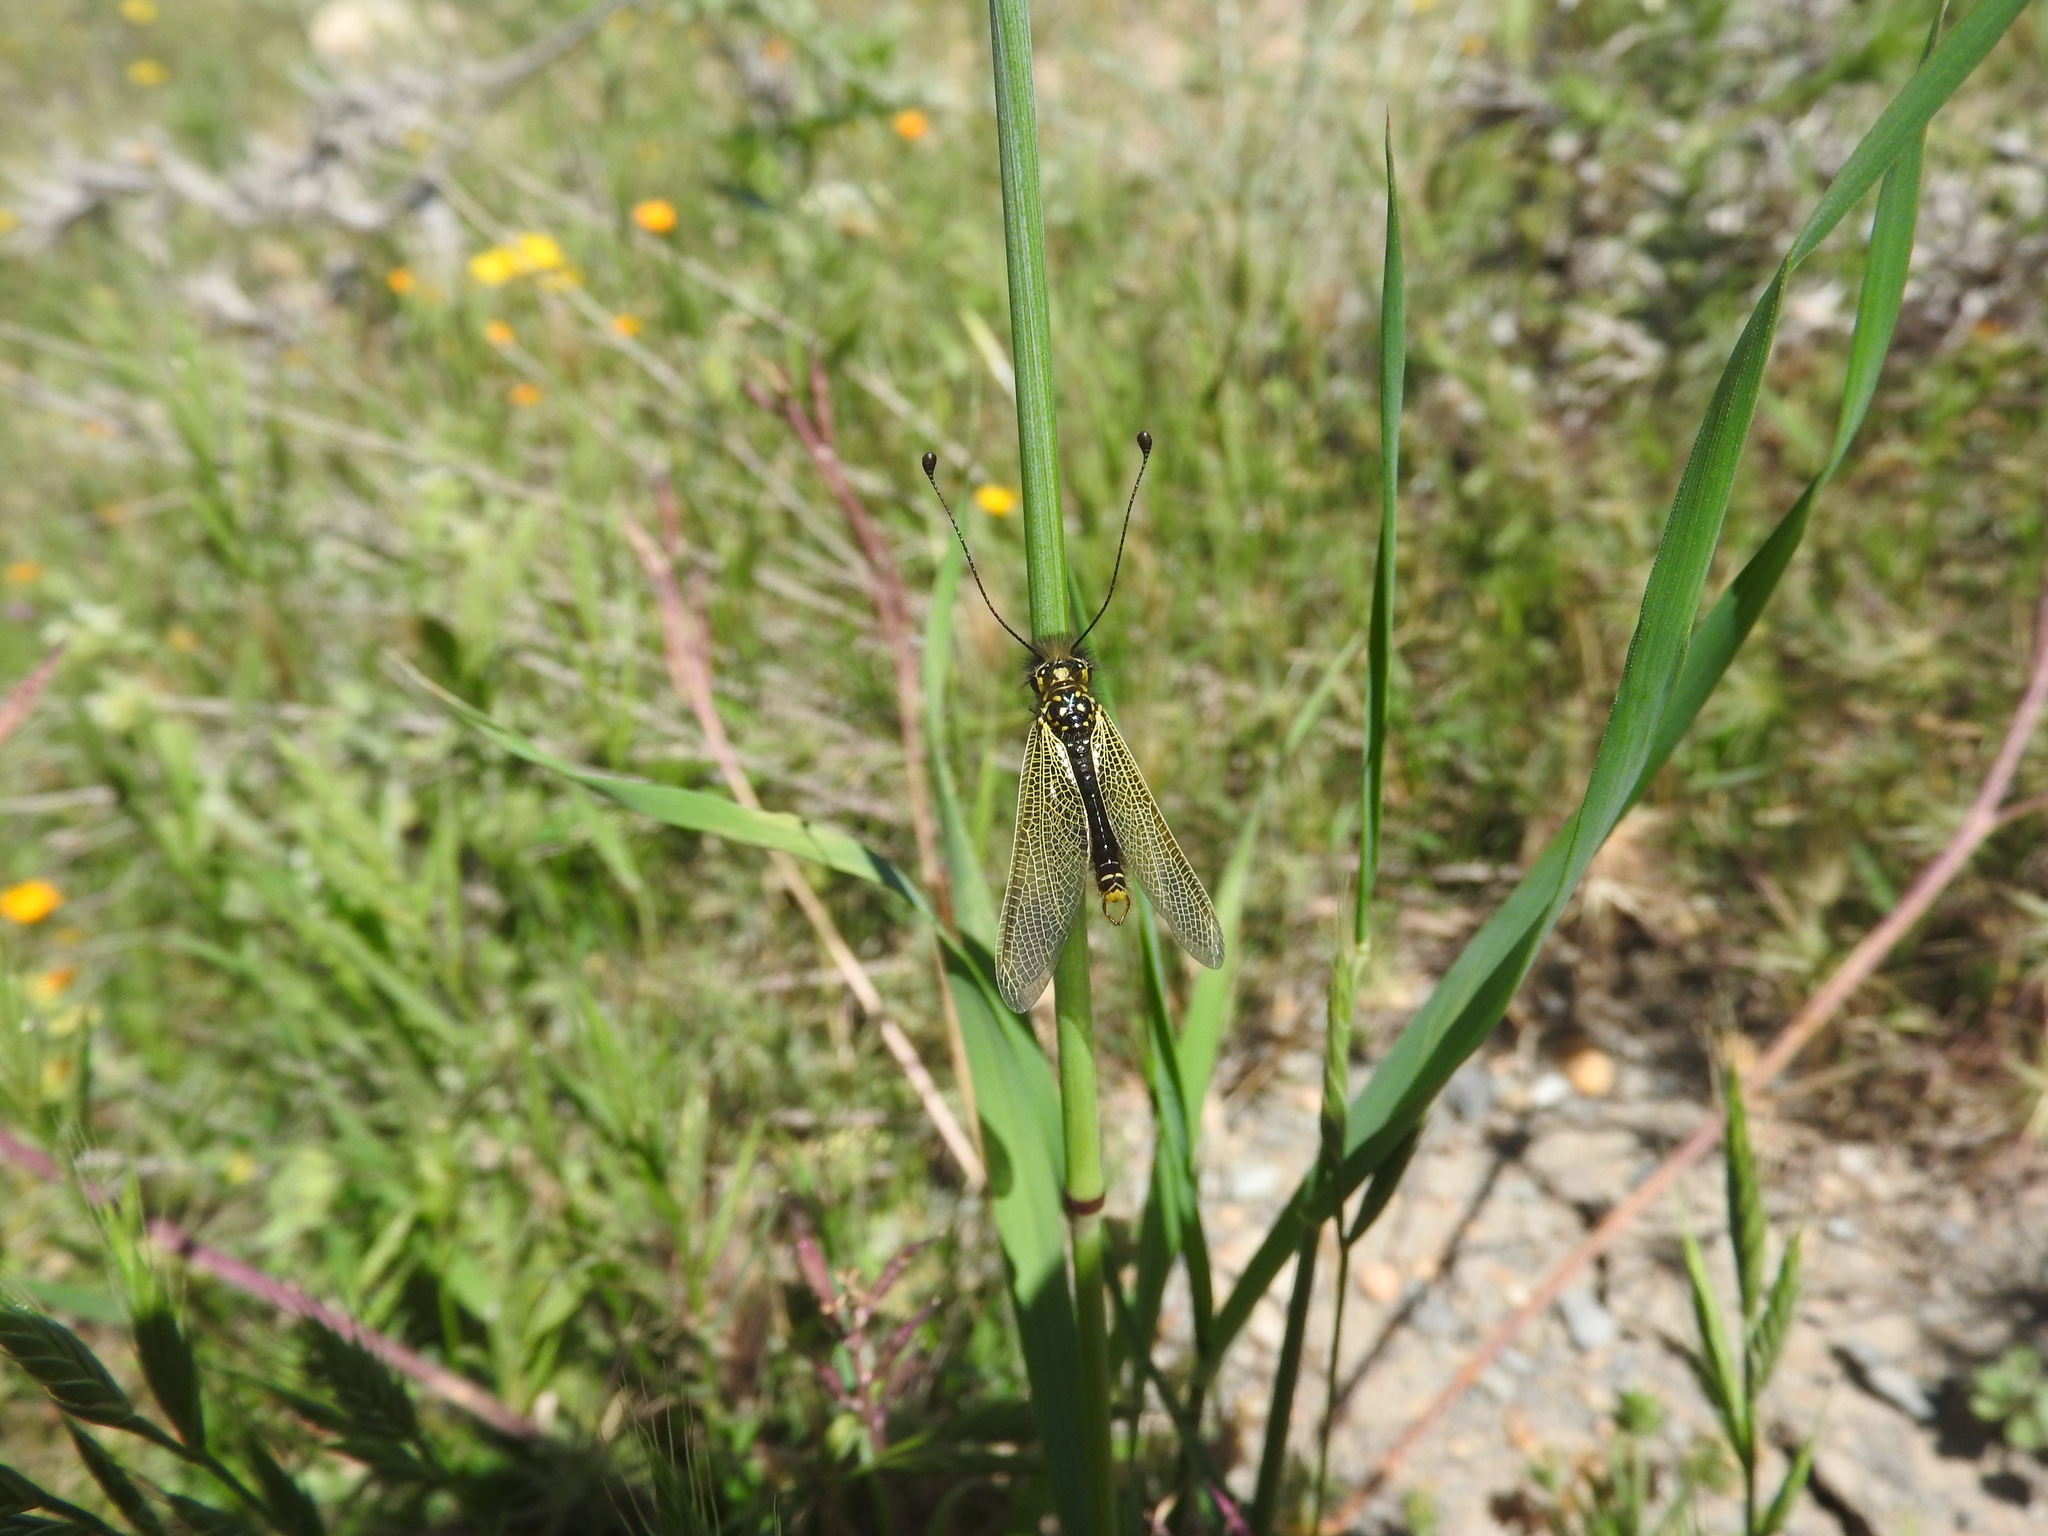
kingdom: Animalia
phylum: Arthropoda
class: Insecta
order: Neuroptera
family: Ascalaphidae
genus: Libelloides
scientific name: Libelloides ictericus
